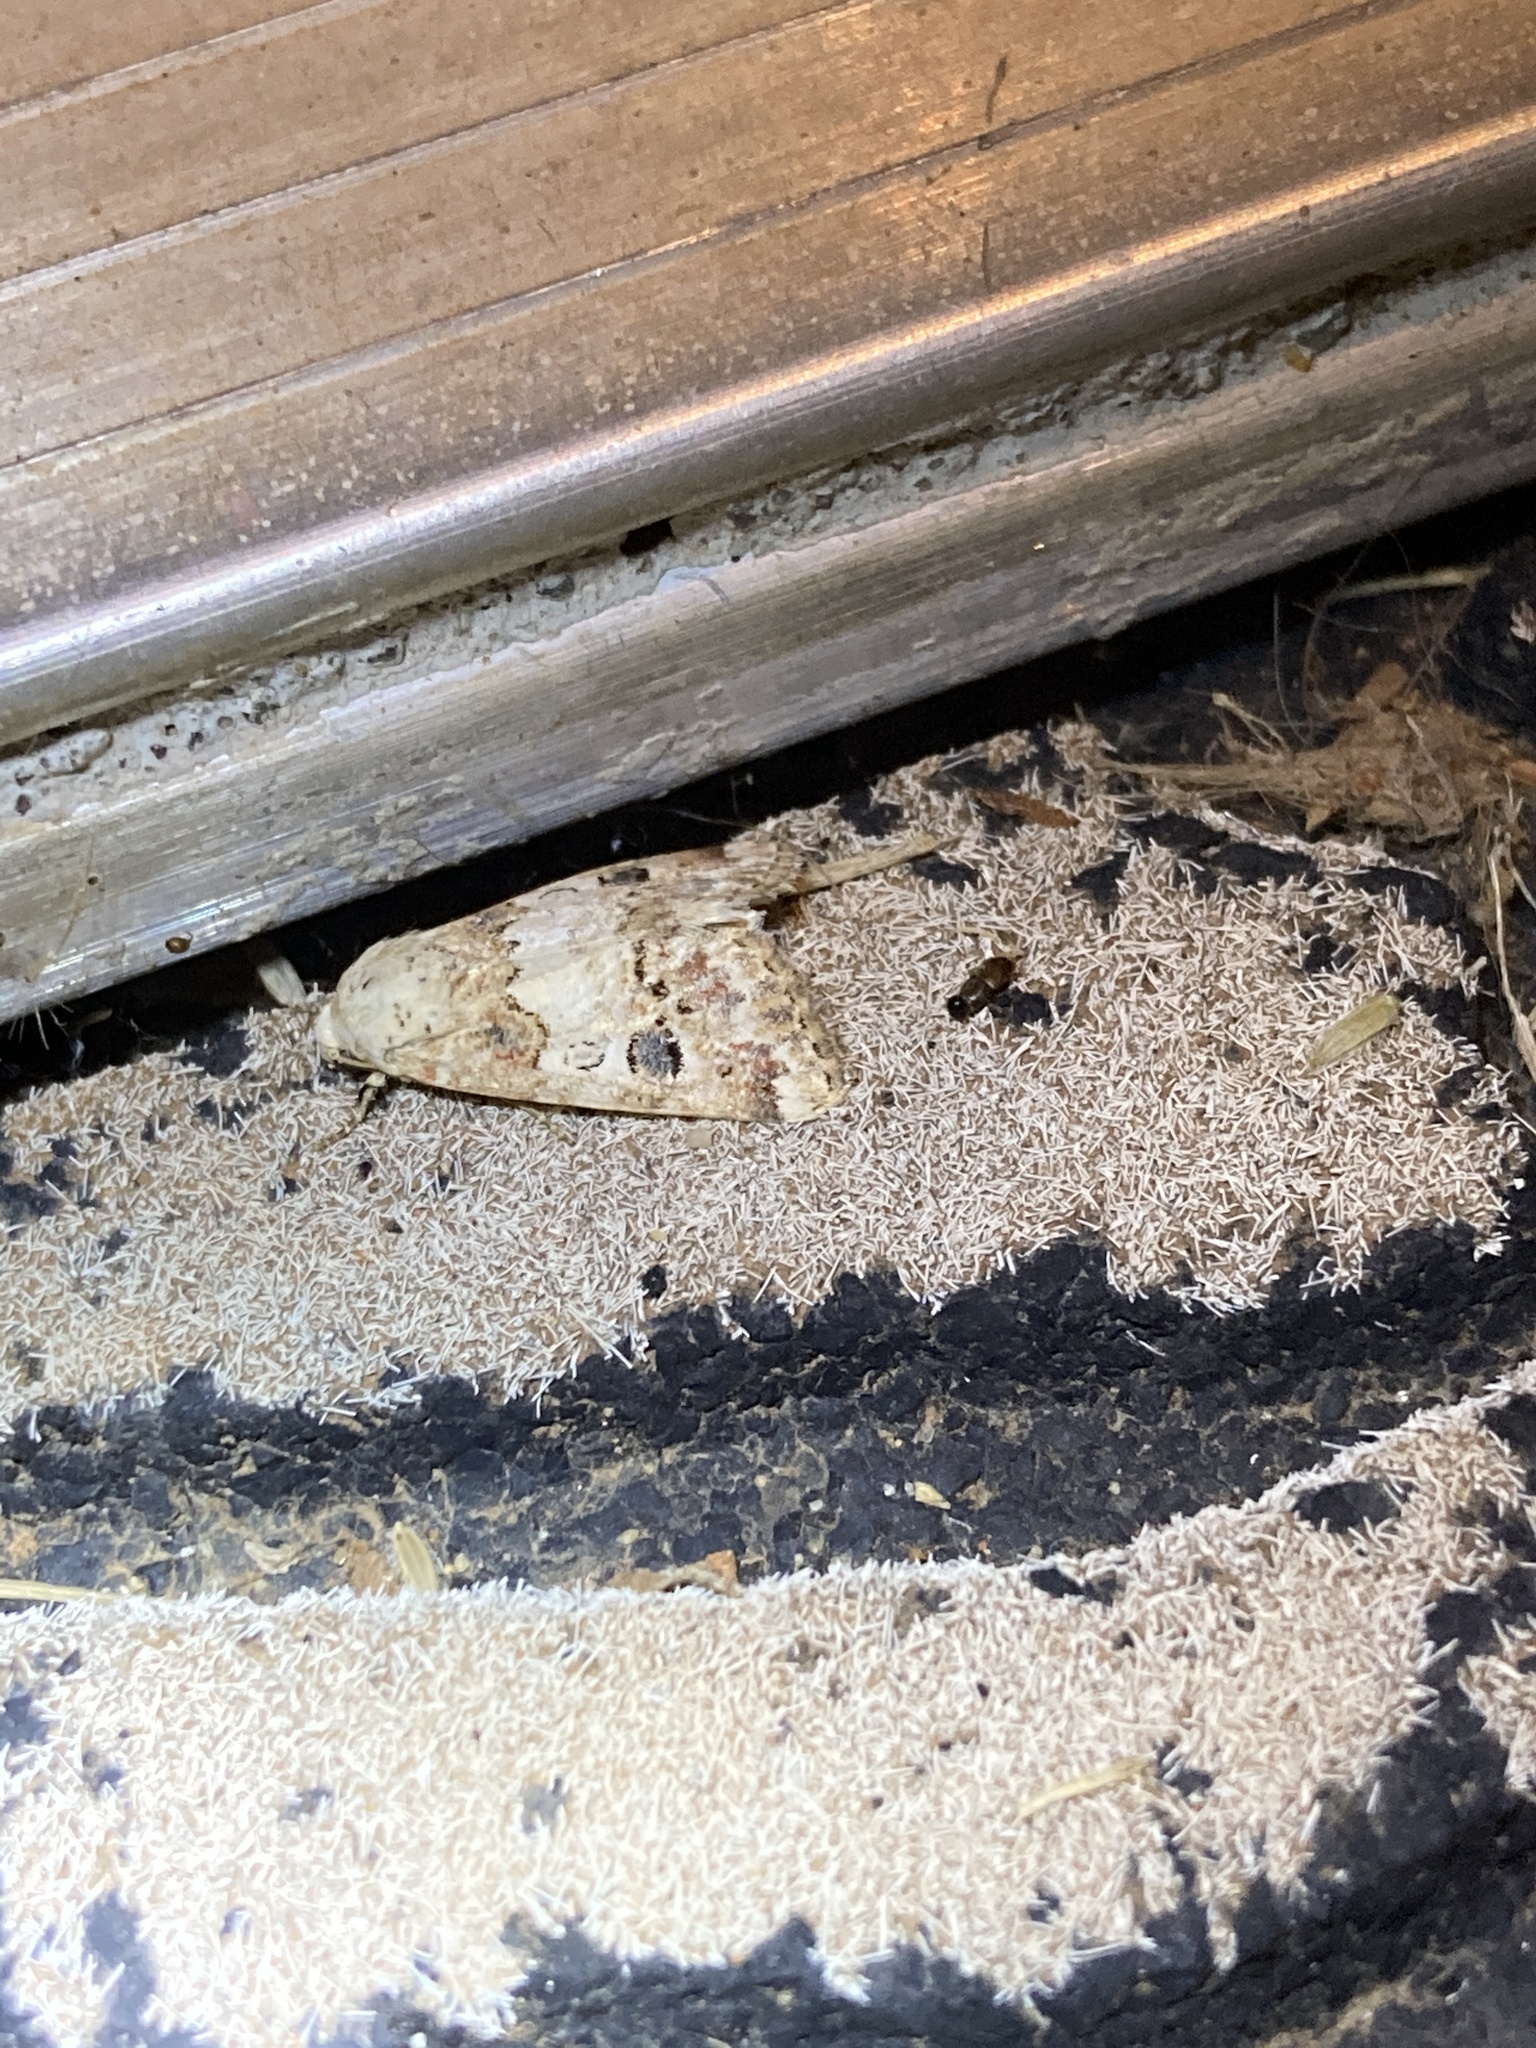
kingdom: Animalia
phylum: Arthropoda
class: Insecta
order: Lepidoptera
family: Noctuidae
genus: Schinia
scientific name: Schinia tertia
